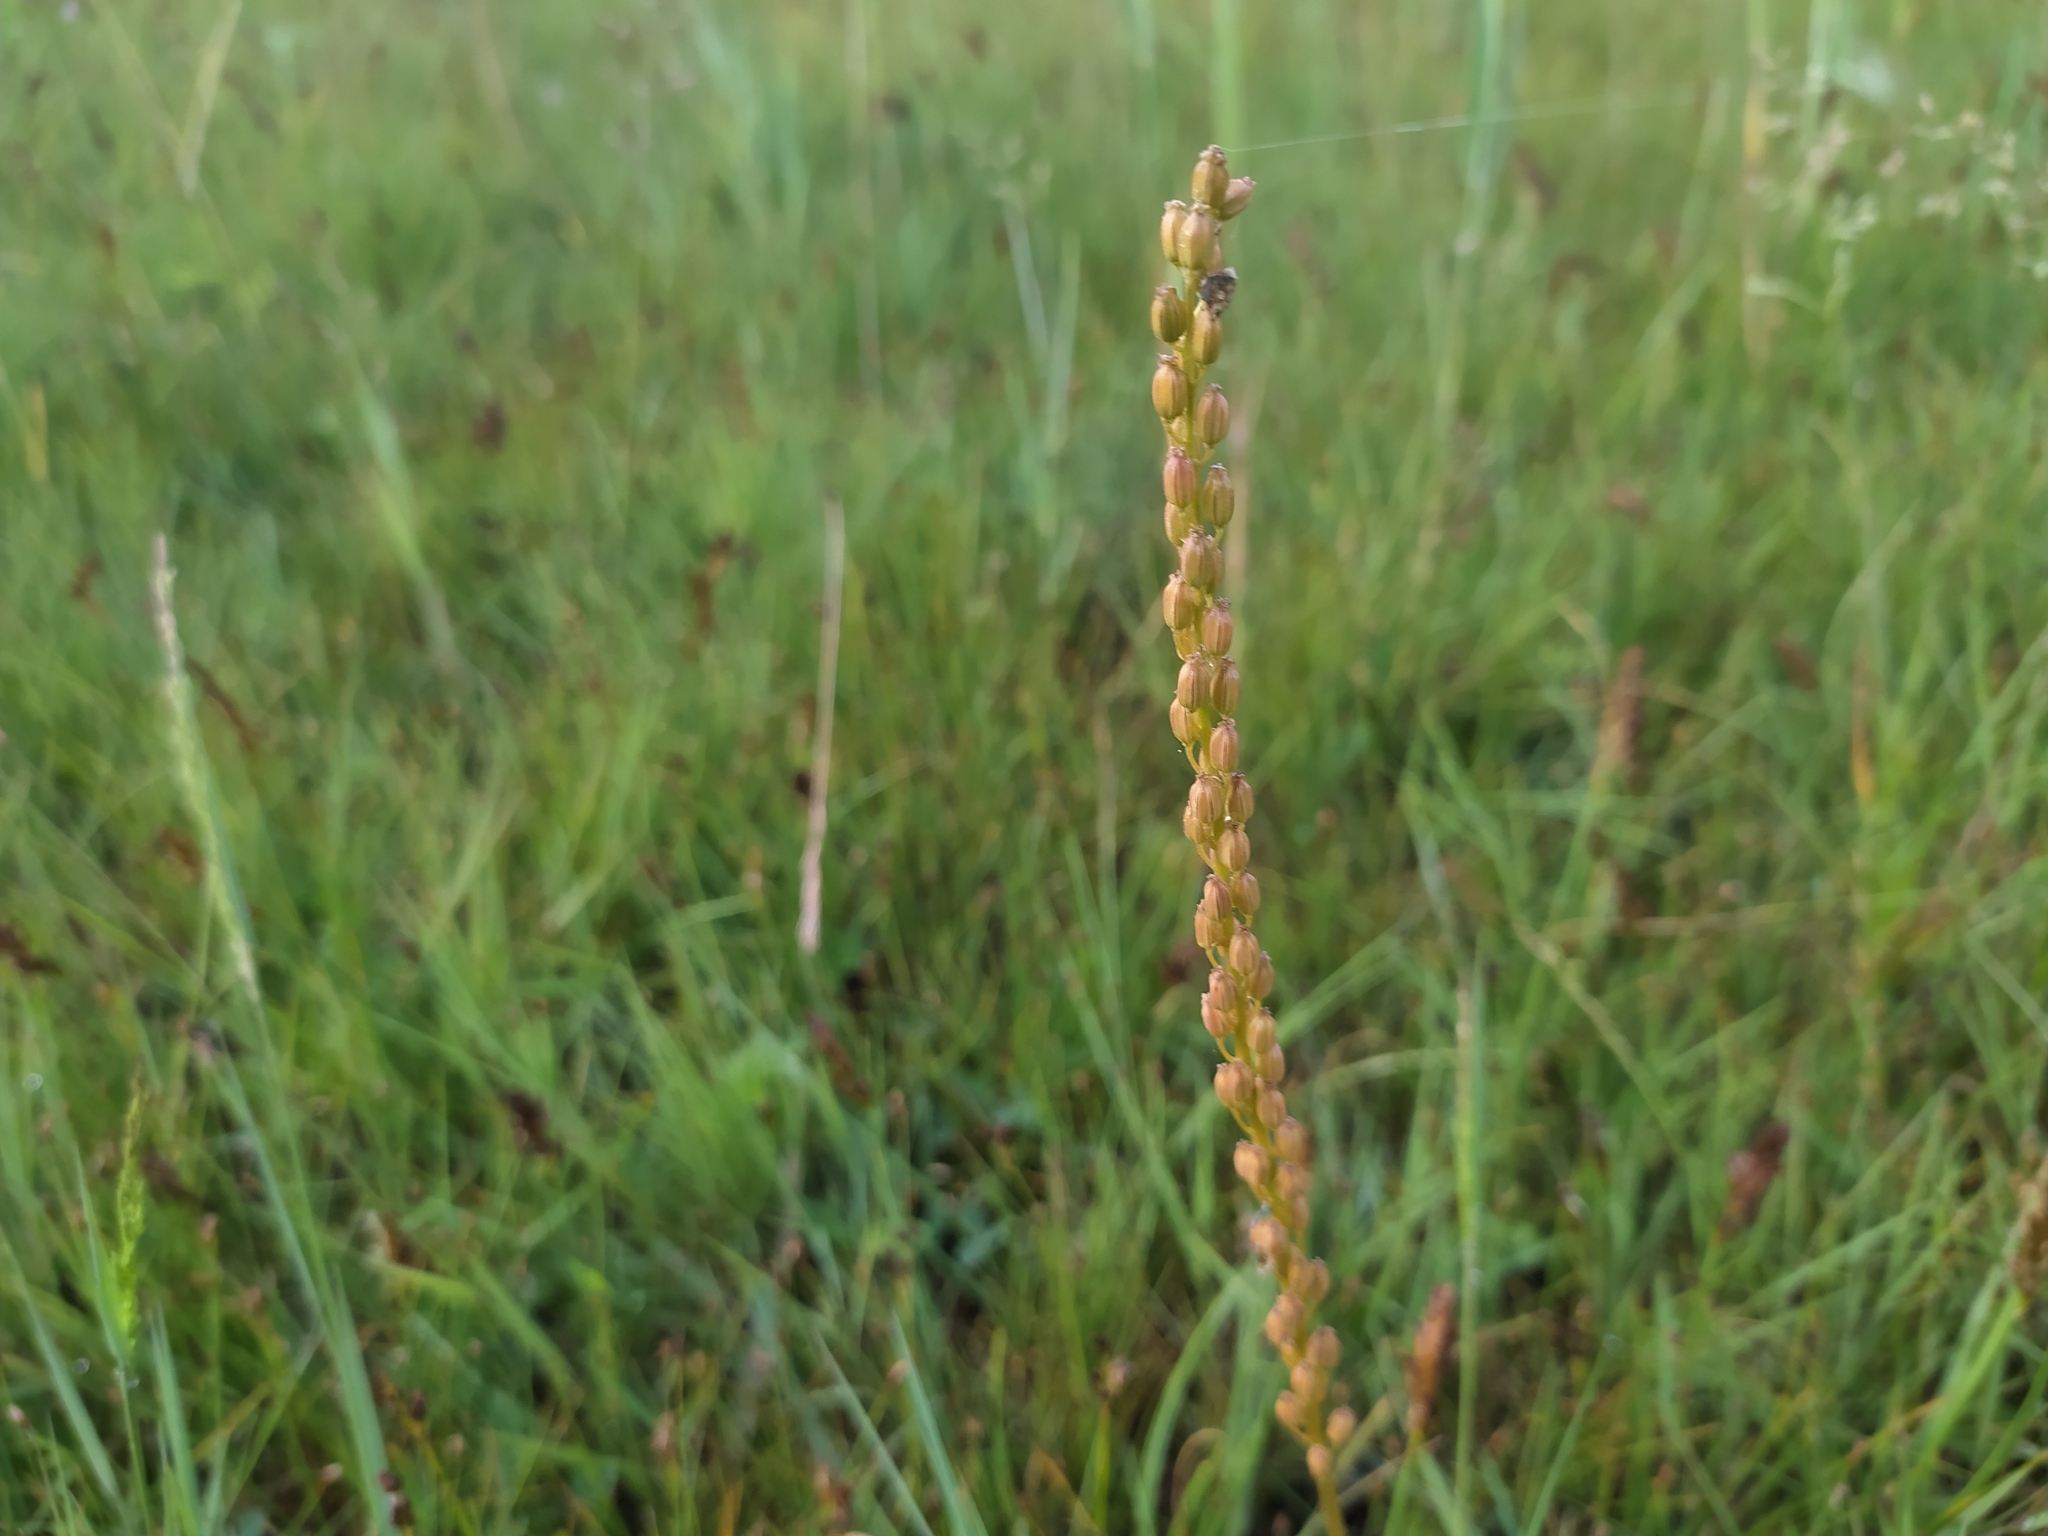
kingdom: Plantae
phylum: Tracheophyta
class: Liliopsida
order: Alismatales
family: Juncaginaceae
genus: Triglochin
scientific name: Triglochin maritima
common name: Sea arrowgrass
